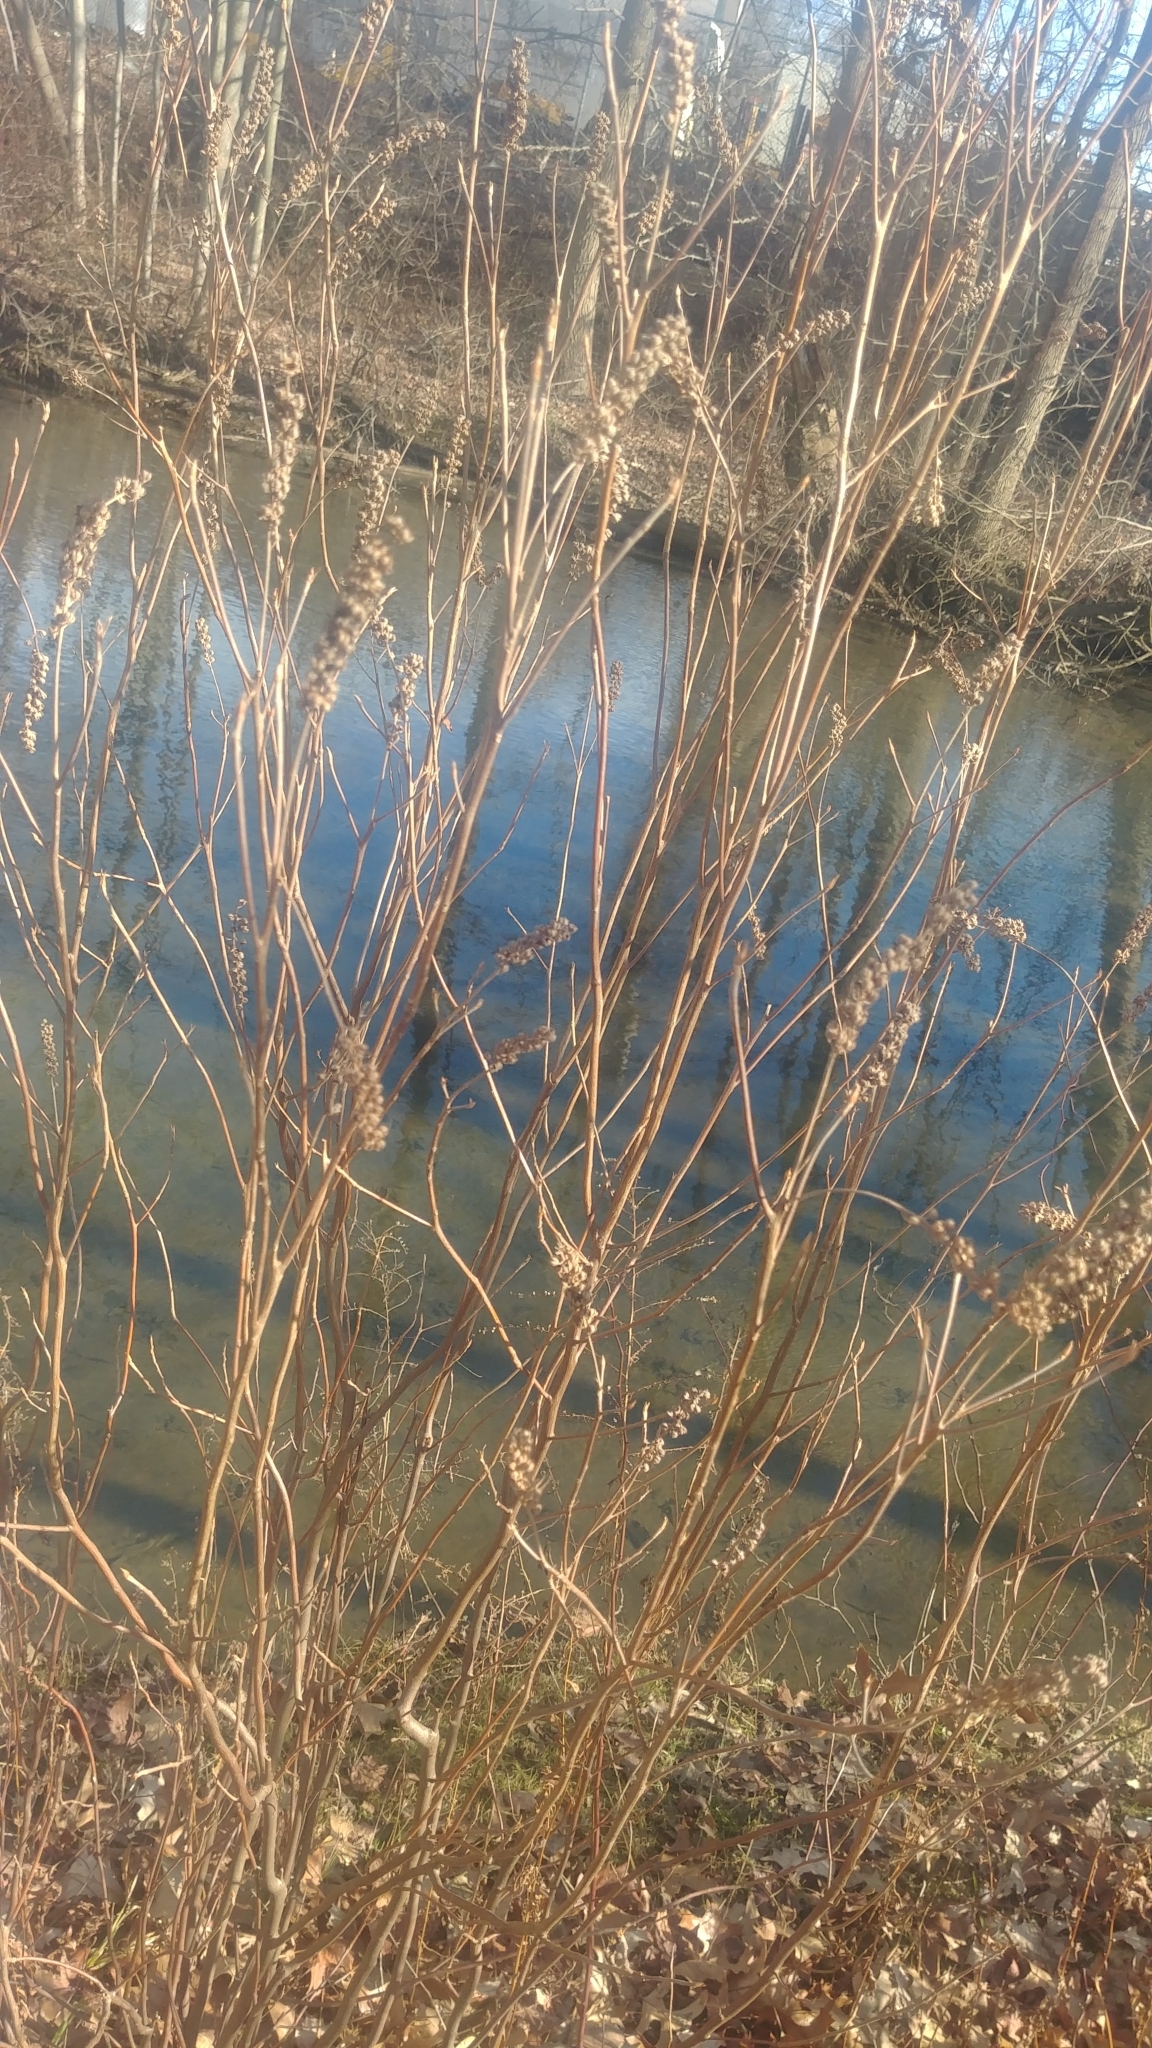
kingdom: Plantae
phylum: Tracheophyta
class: Magnoliopsida
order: Ericales
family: Clethraceae
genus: Clethra
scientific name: Clethra alnifolia
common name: Sweet pepperbush
